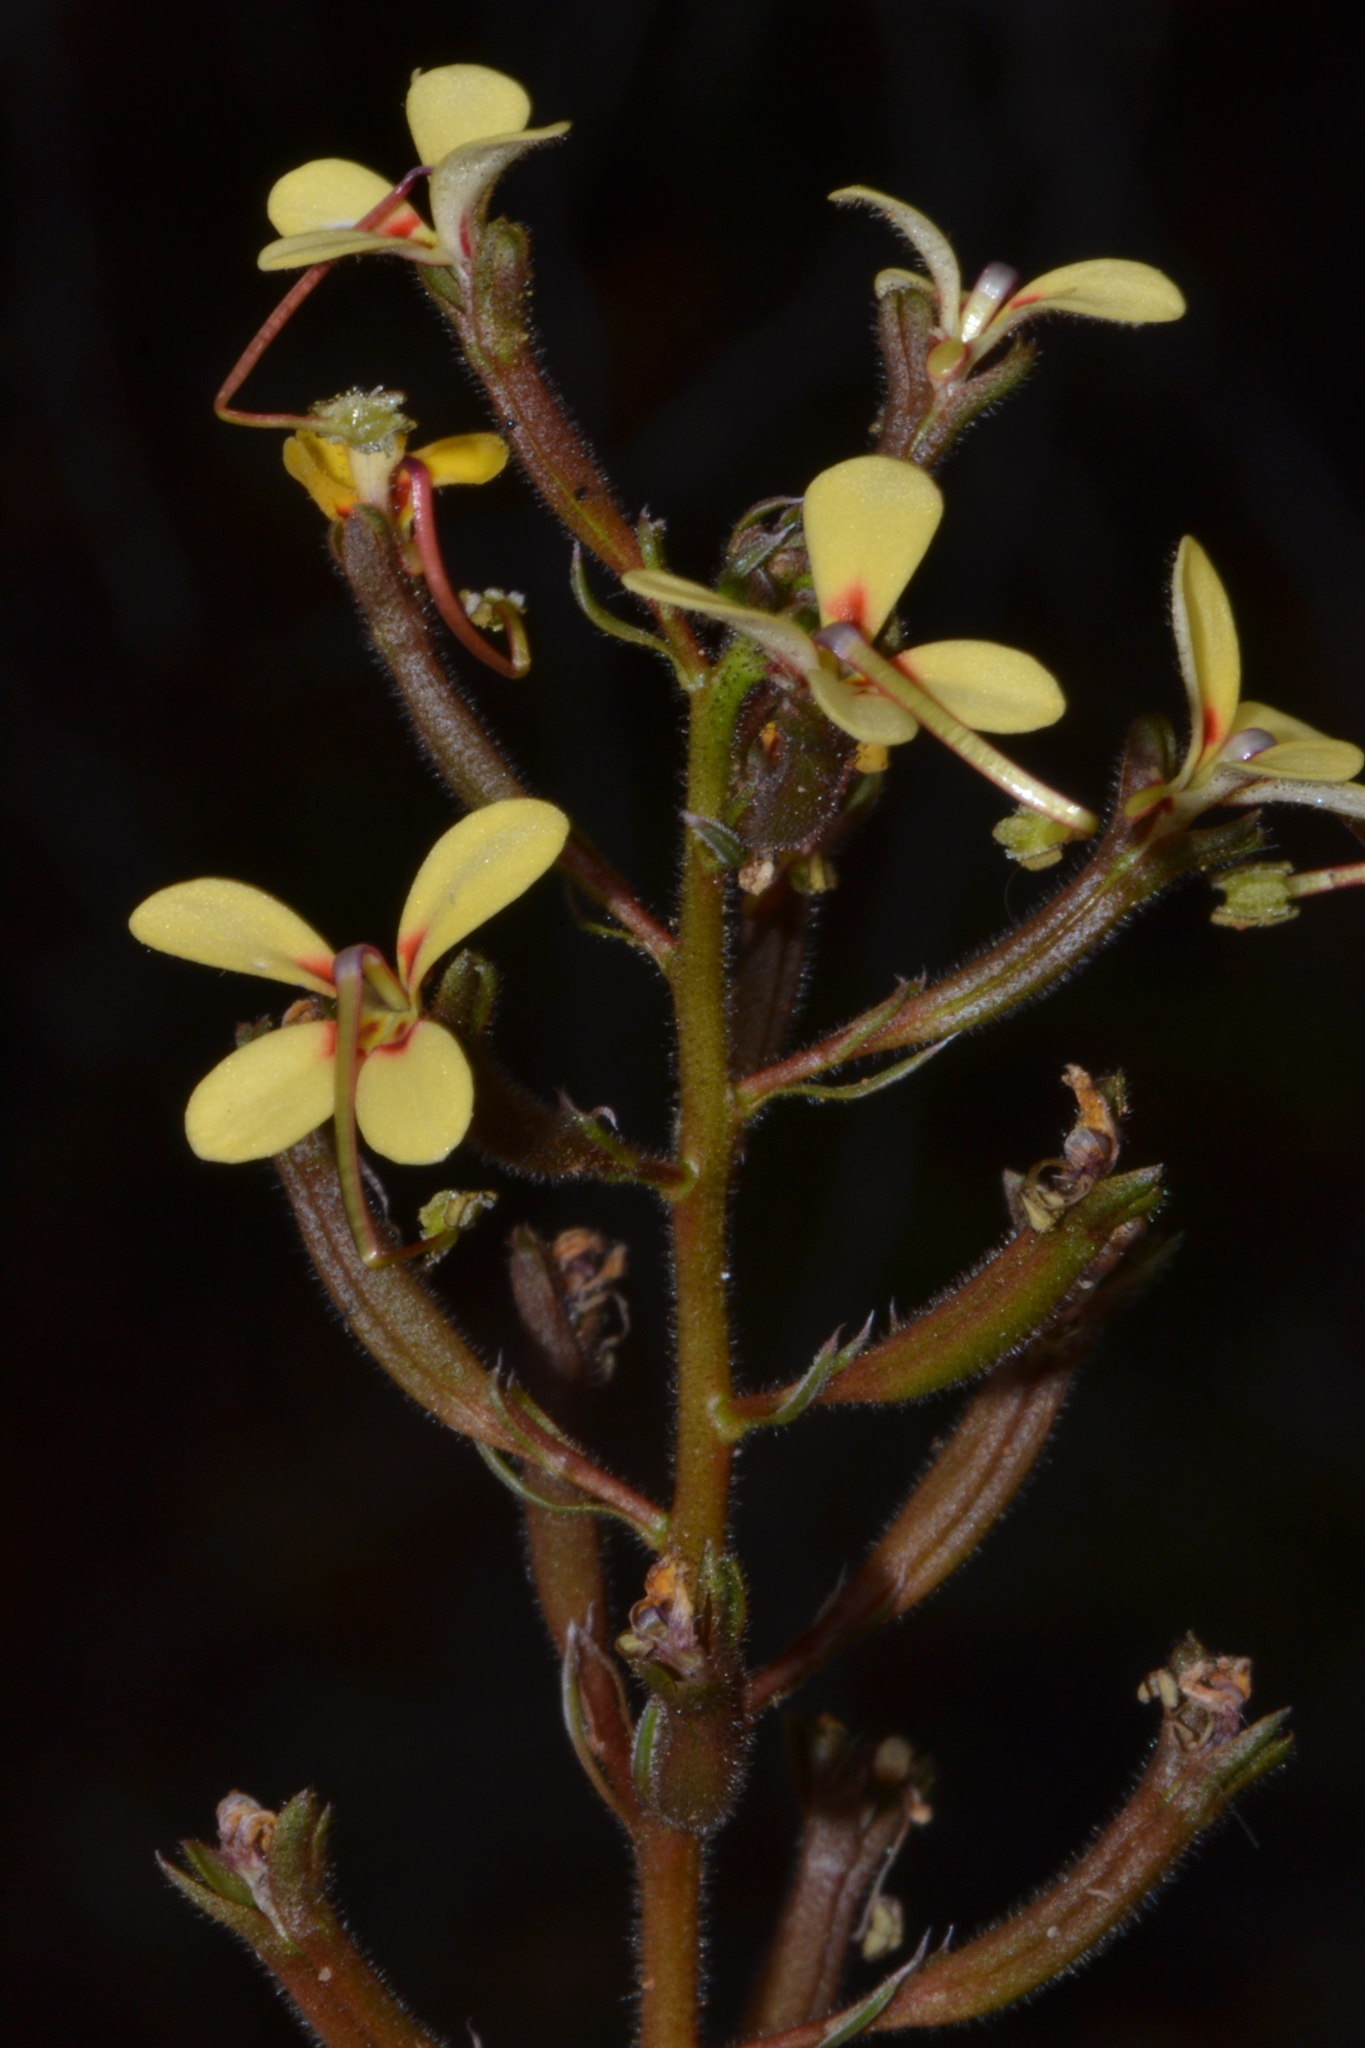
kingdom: Plantae
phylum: Tracheophyta
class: Magnoliopsida
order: Asterales
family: Stylidiaceae
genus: Stylidium
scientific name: Stylidium pendulum
